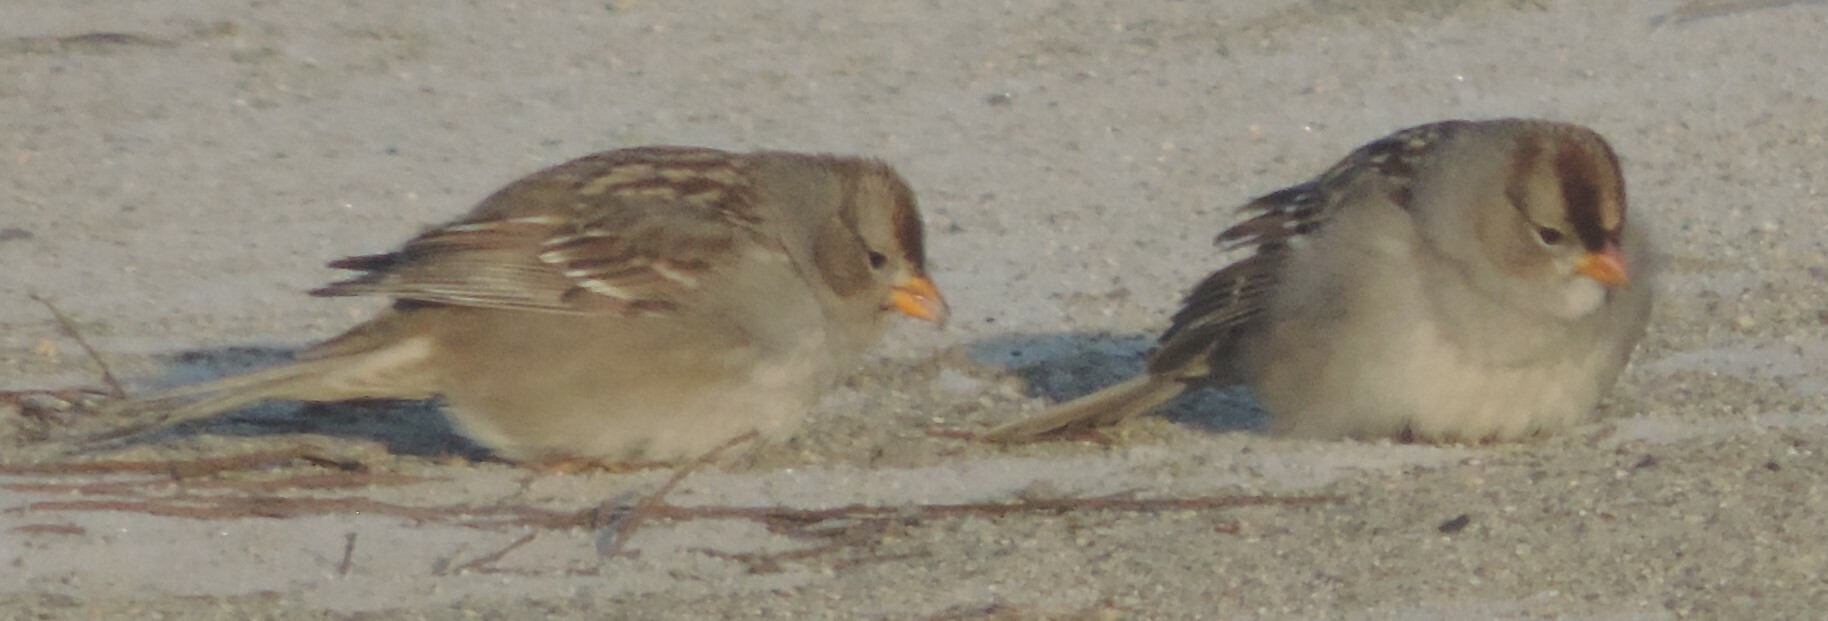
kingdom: Animalia
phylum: Chordata
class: Aves
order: Passeriformes
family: Passerellidae
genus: Zonotrichia
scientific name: Zonotrichia leucophrys
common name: White-crowned sparrow
